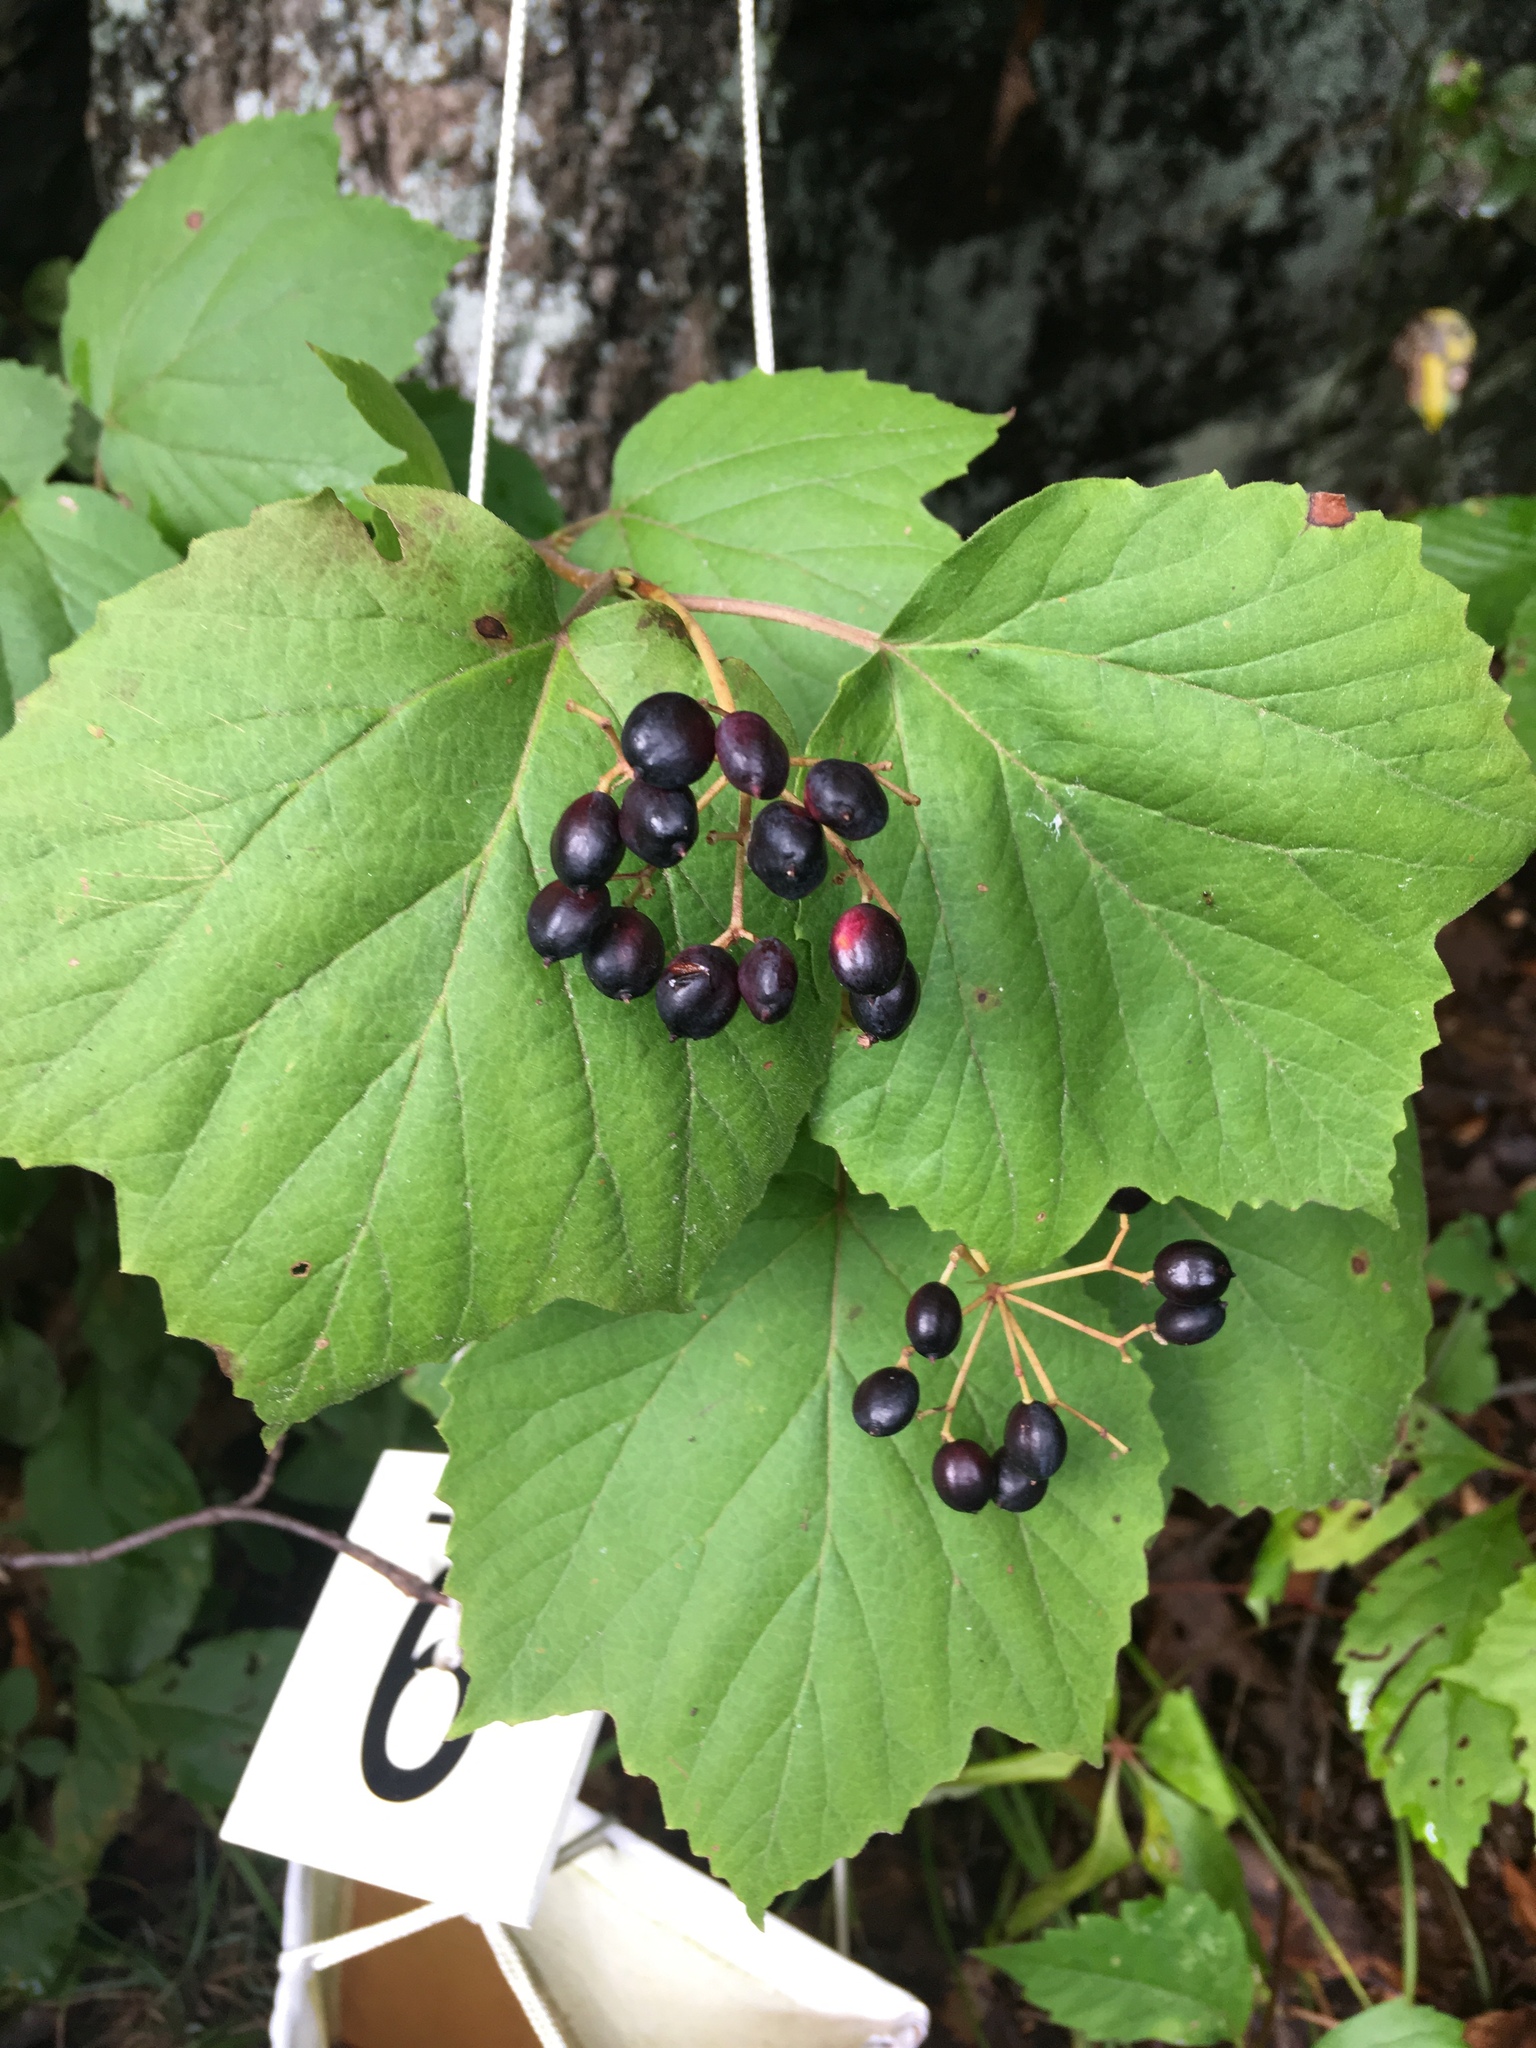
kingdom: Plantae
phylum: Tracheophyta
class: Magnoliopsida
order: Dipsacales
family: Viburnaceae
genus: Viburnum
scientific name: Viburnum acerifolium
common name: Dockmackie
